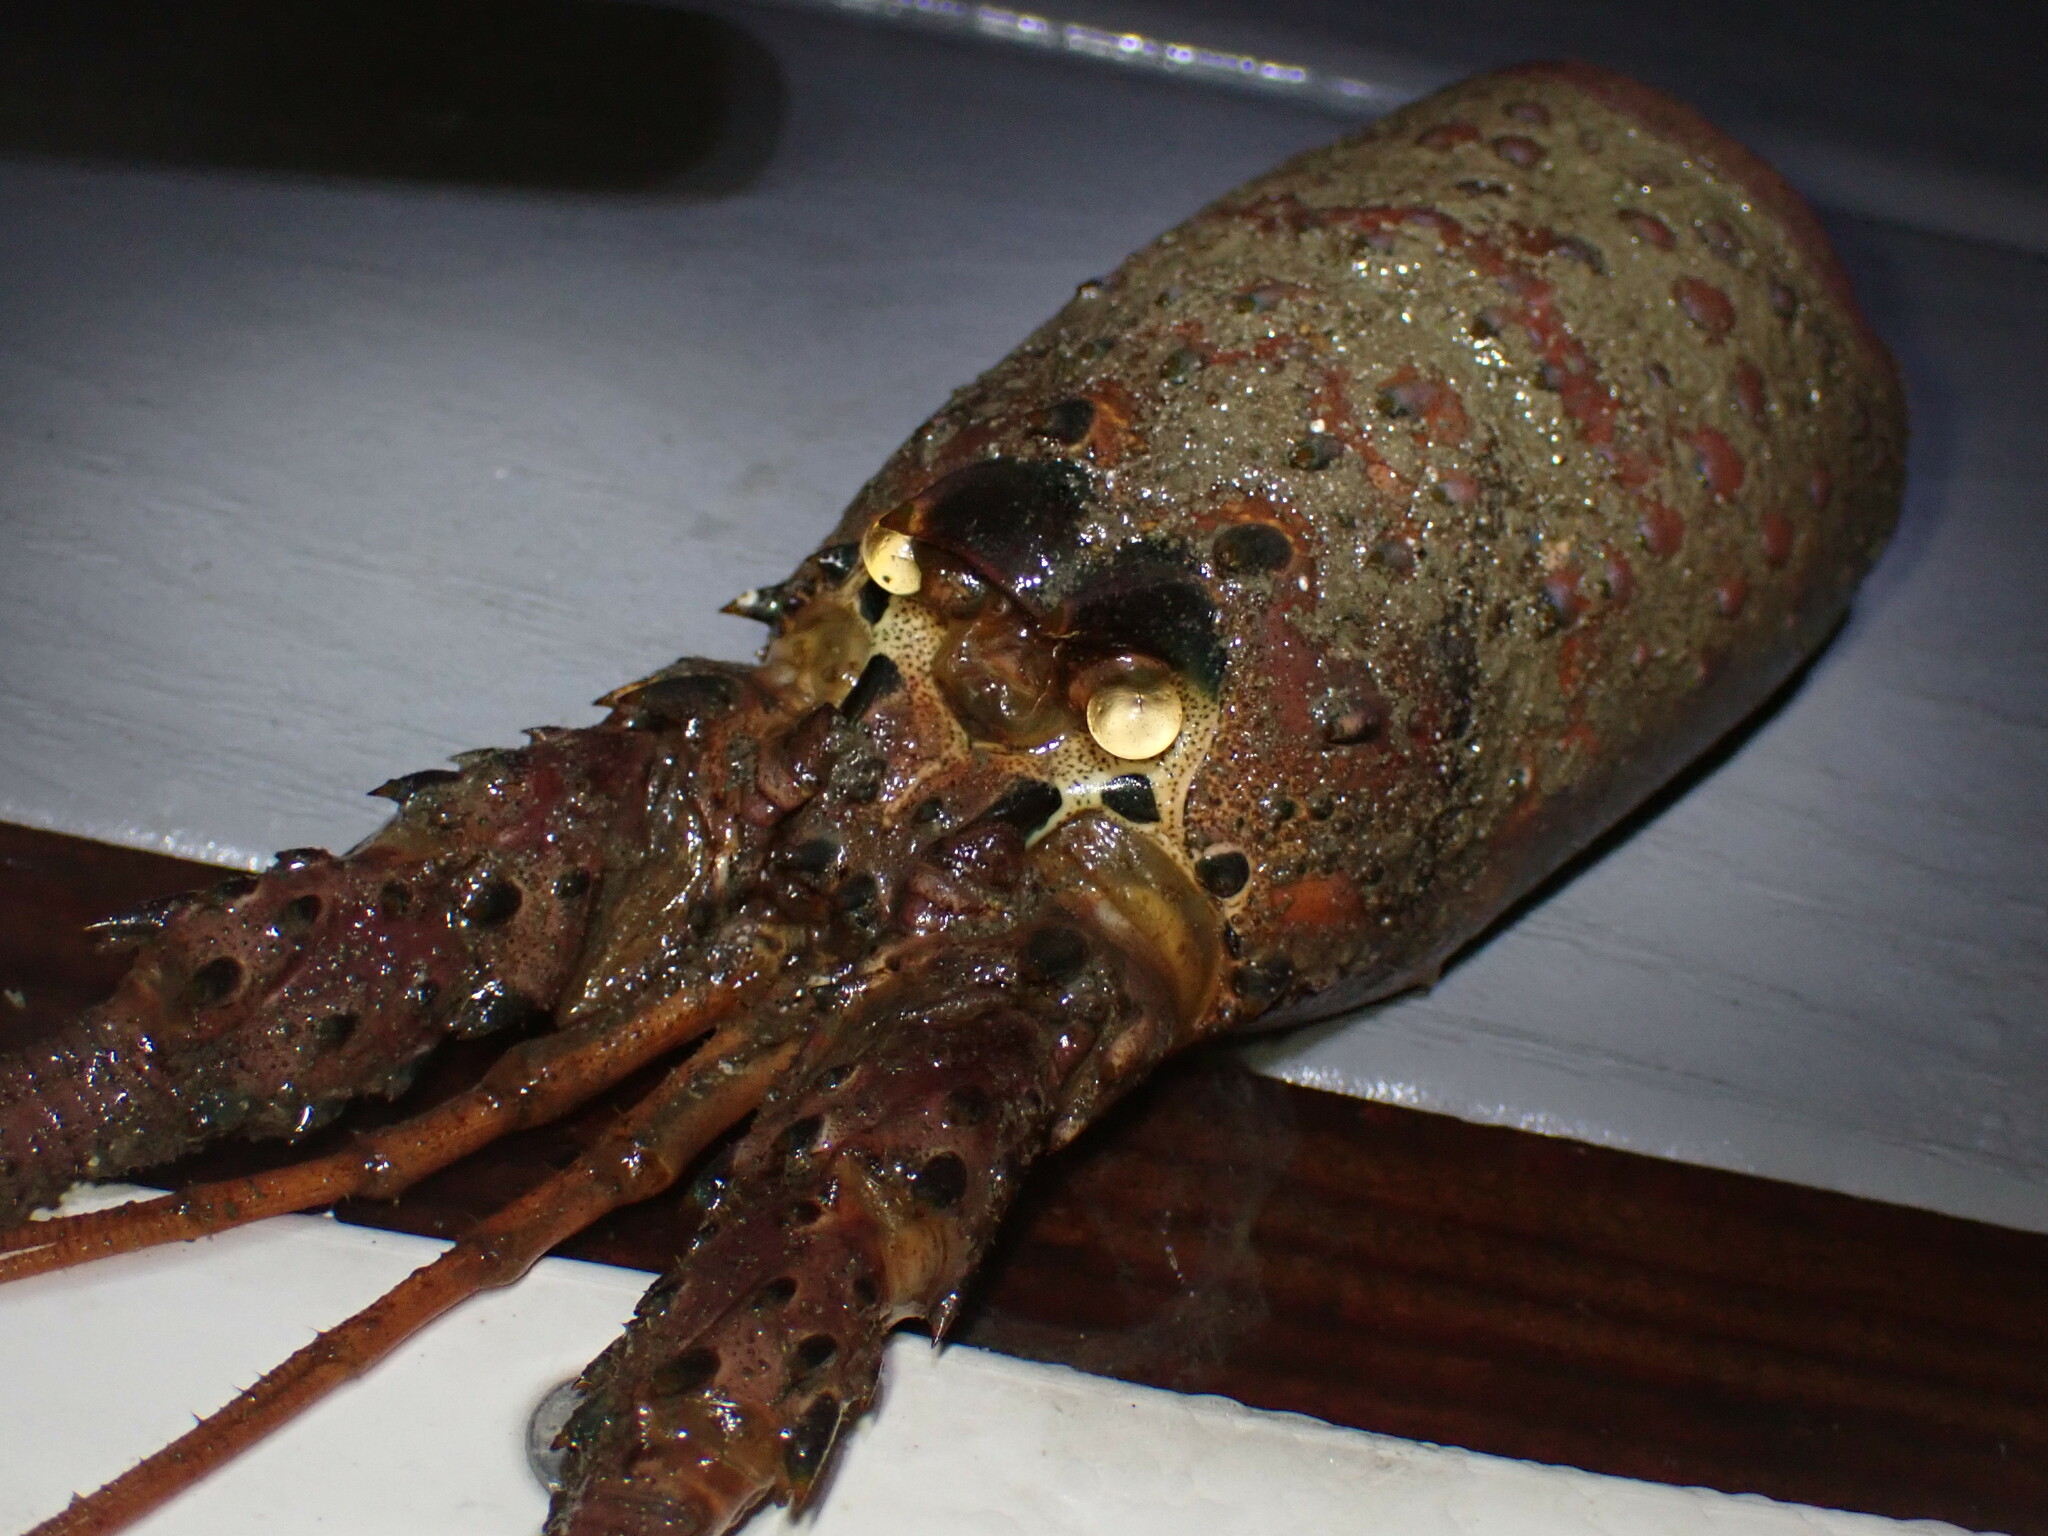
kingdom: Animalia
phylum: Arthropoda
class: Malacostraca
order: Decapoda
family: Palinuridae
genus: Panulirus
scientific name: Panulirus interruptus
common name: California spiny lobster
